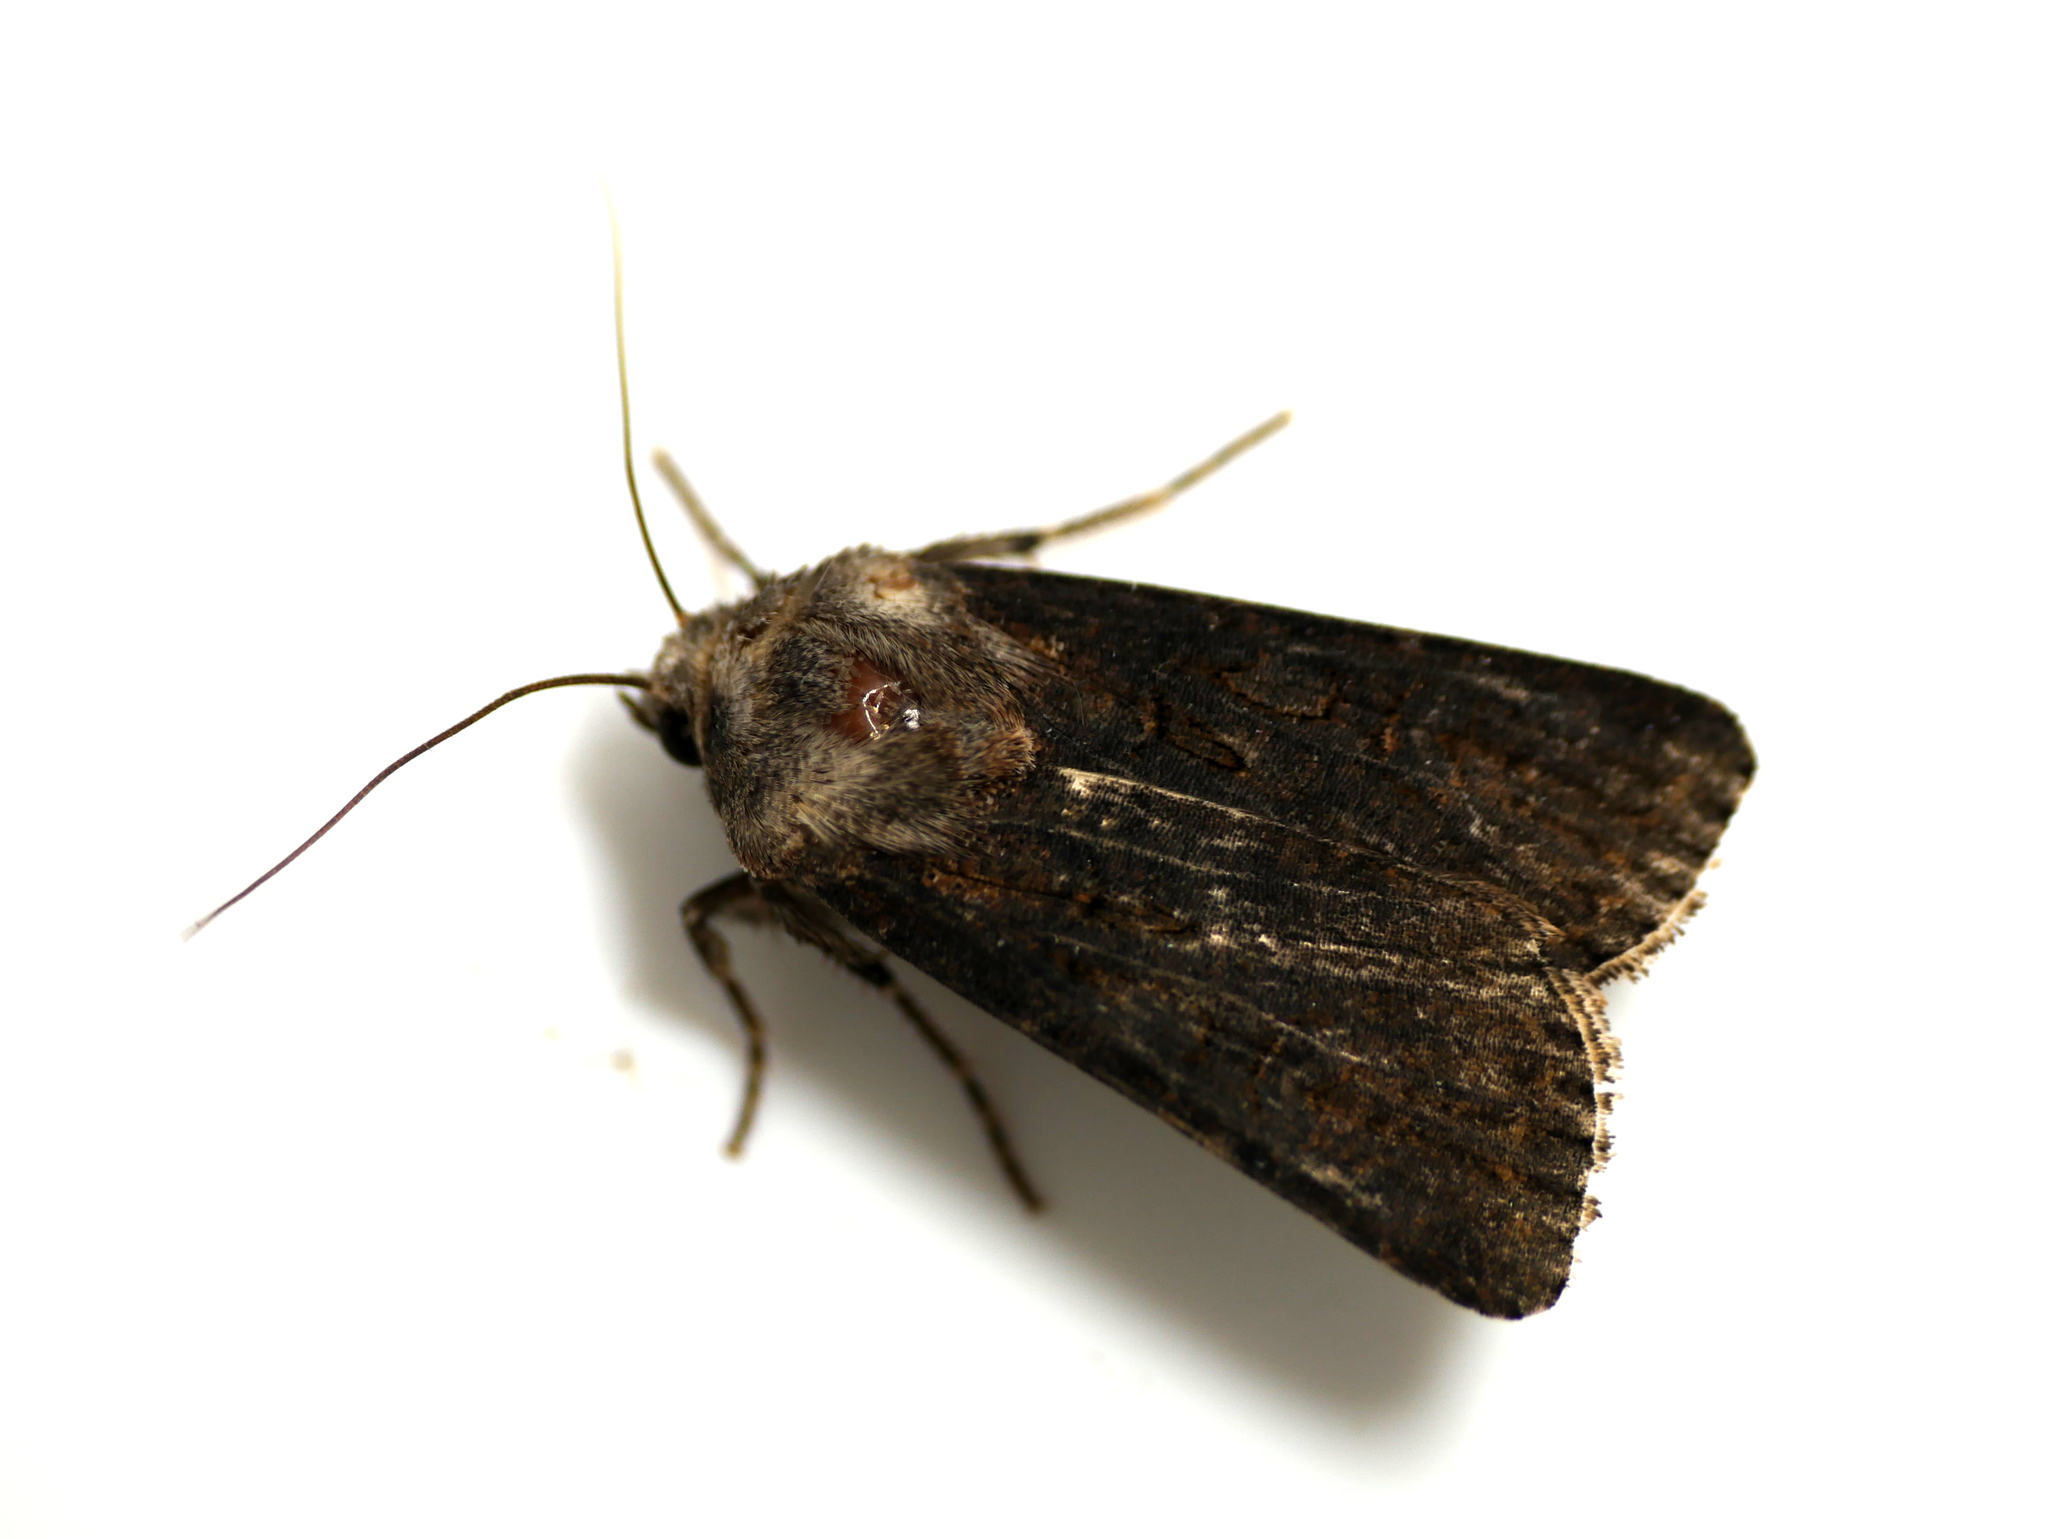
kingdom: Animalia
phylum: Arthropoda
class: Insecta
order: Lepidoptera
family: Noctuidae
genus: Agrotis
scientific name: Agrotis segetum
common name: Turnip moth
